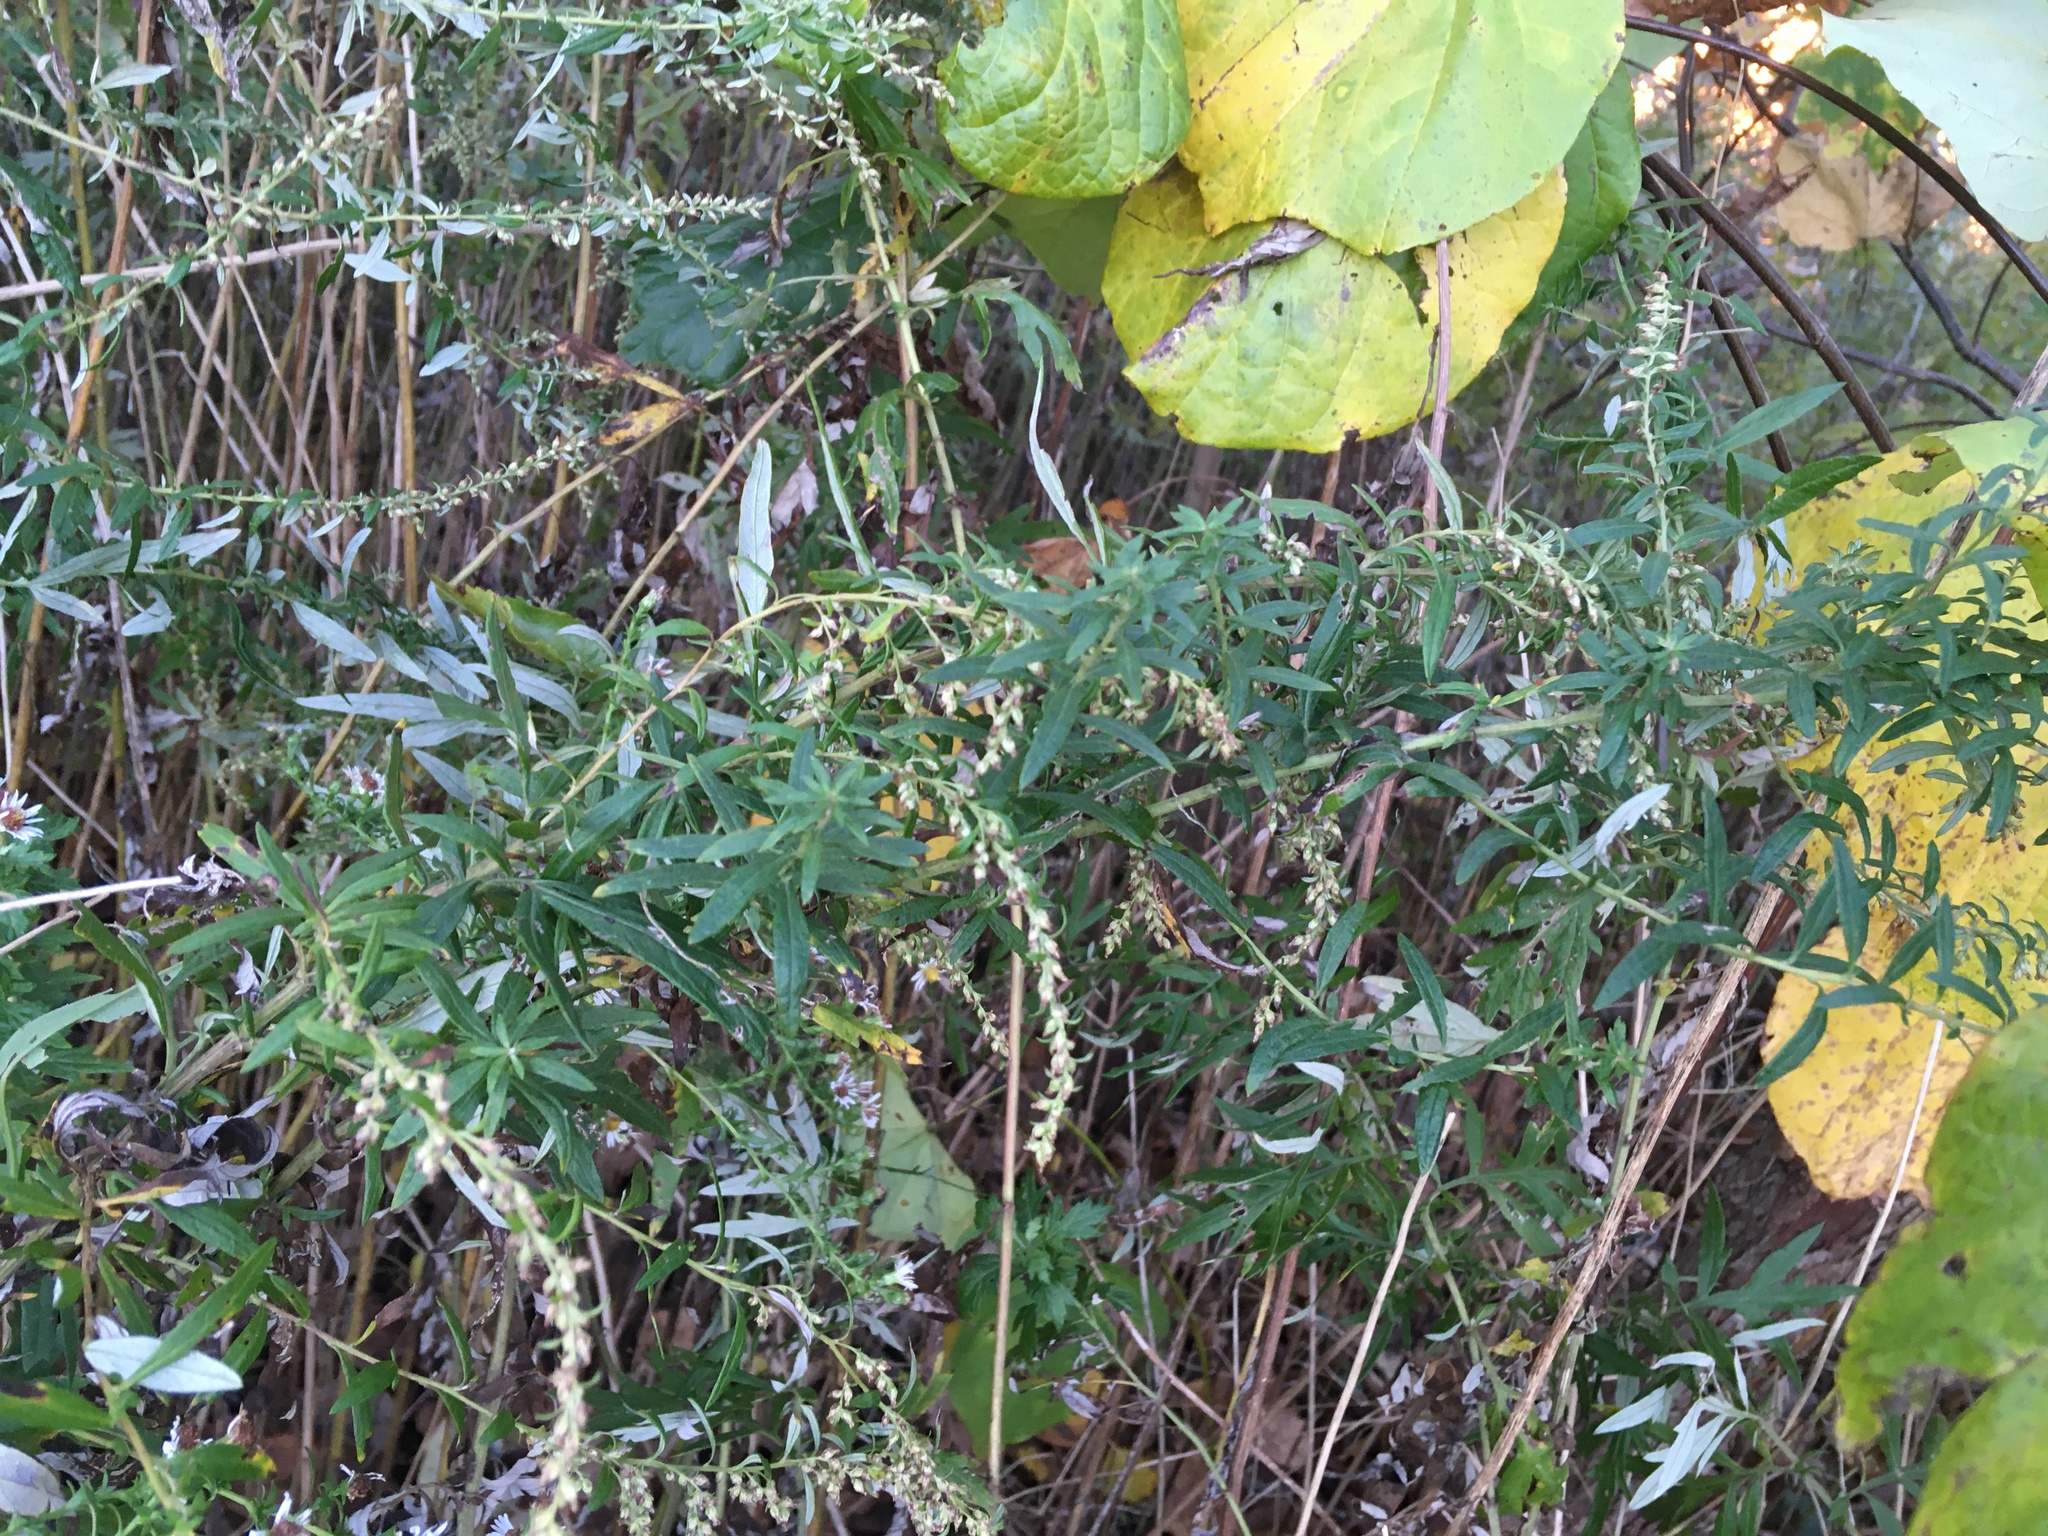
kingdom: Plantae
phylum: Tracheophyta
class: Magnoliopsida
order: Asterales
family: Asteraceae
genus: Artemisia
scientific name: Artemisia vulgaris
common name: Mugwort
